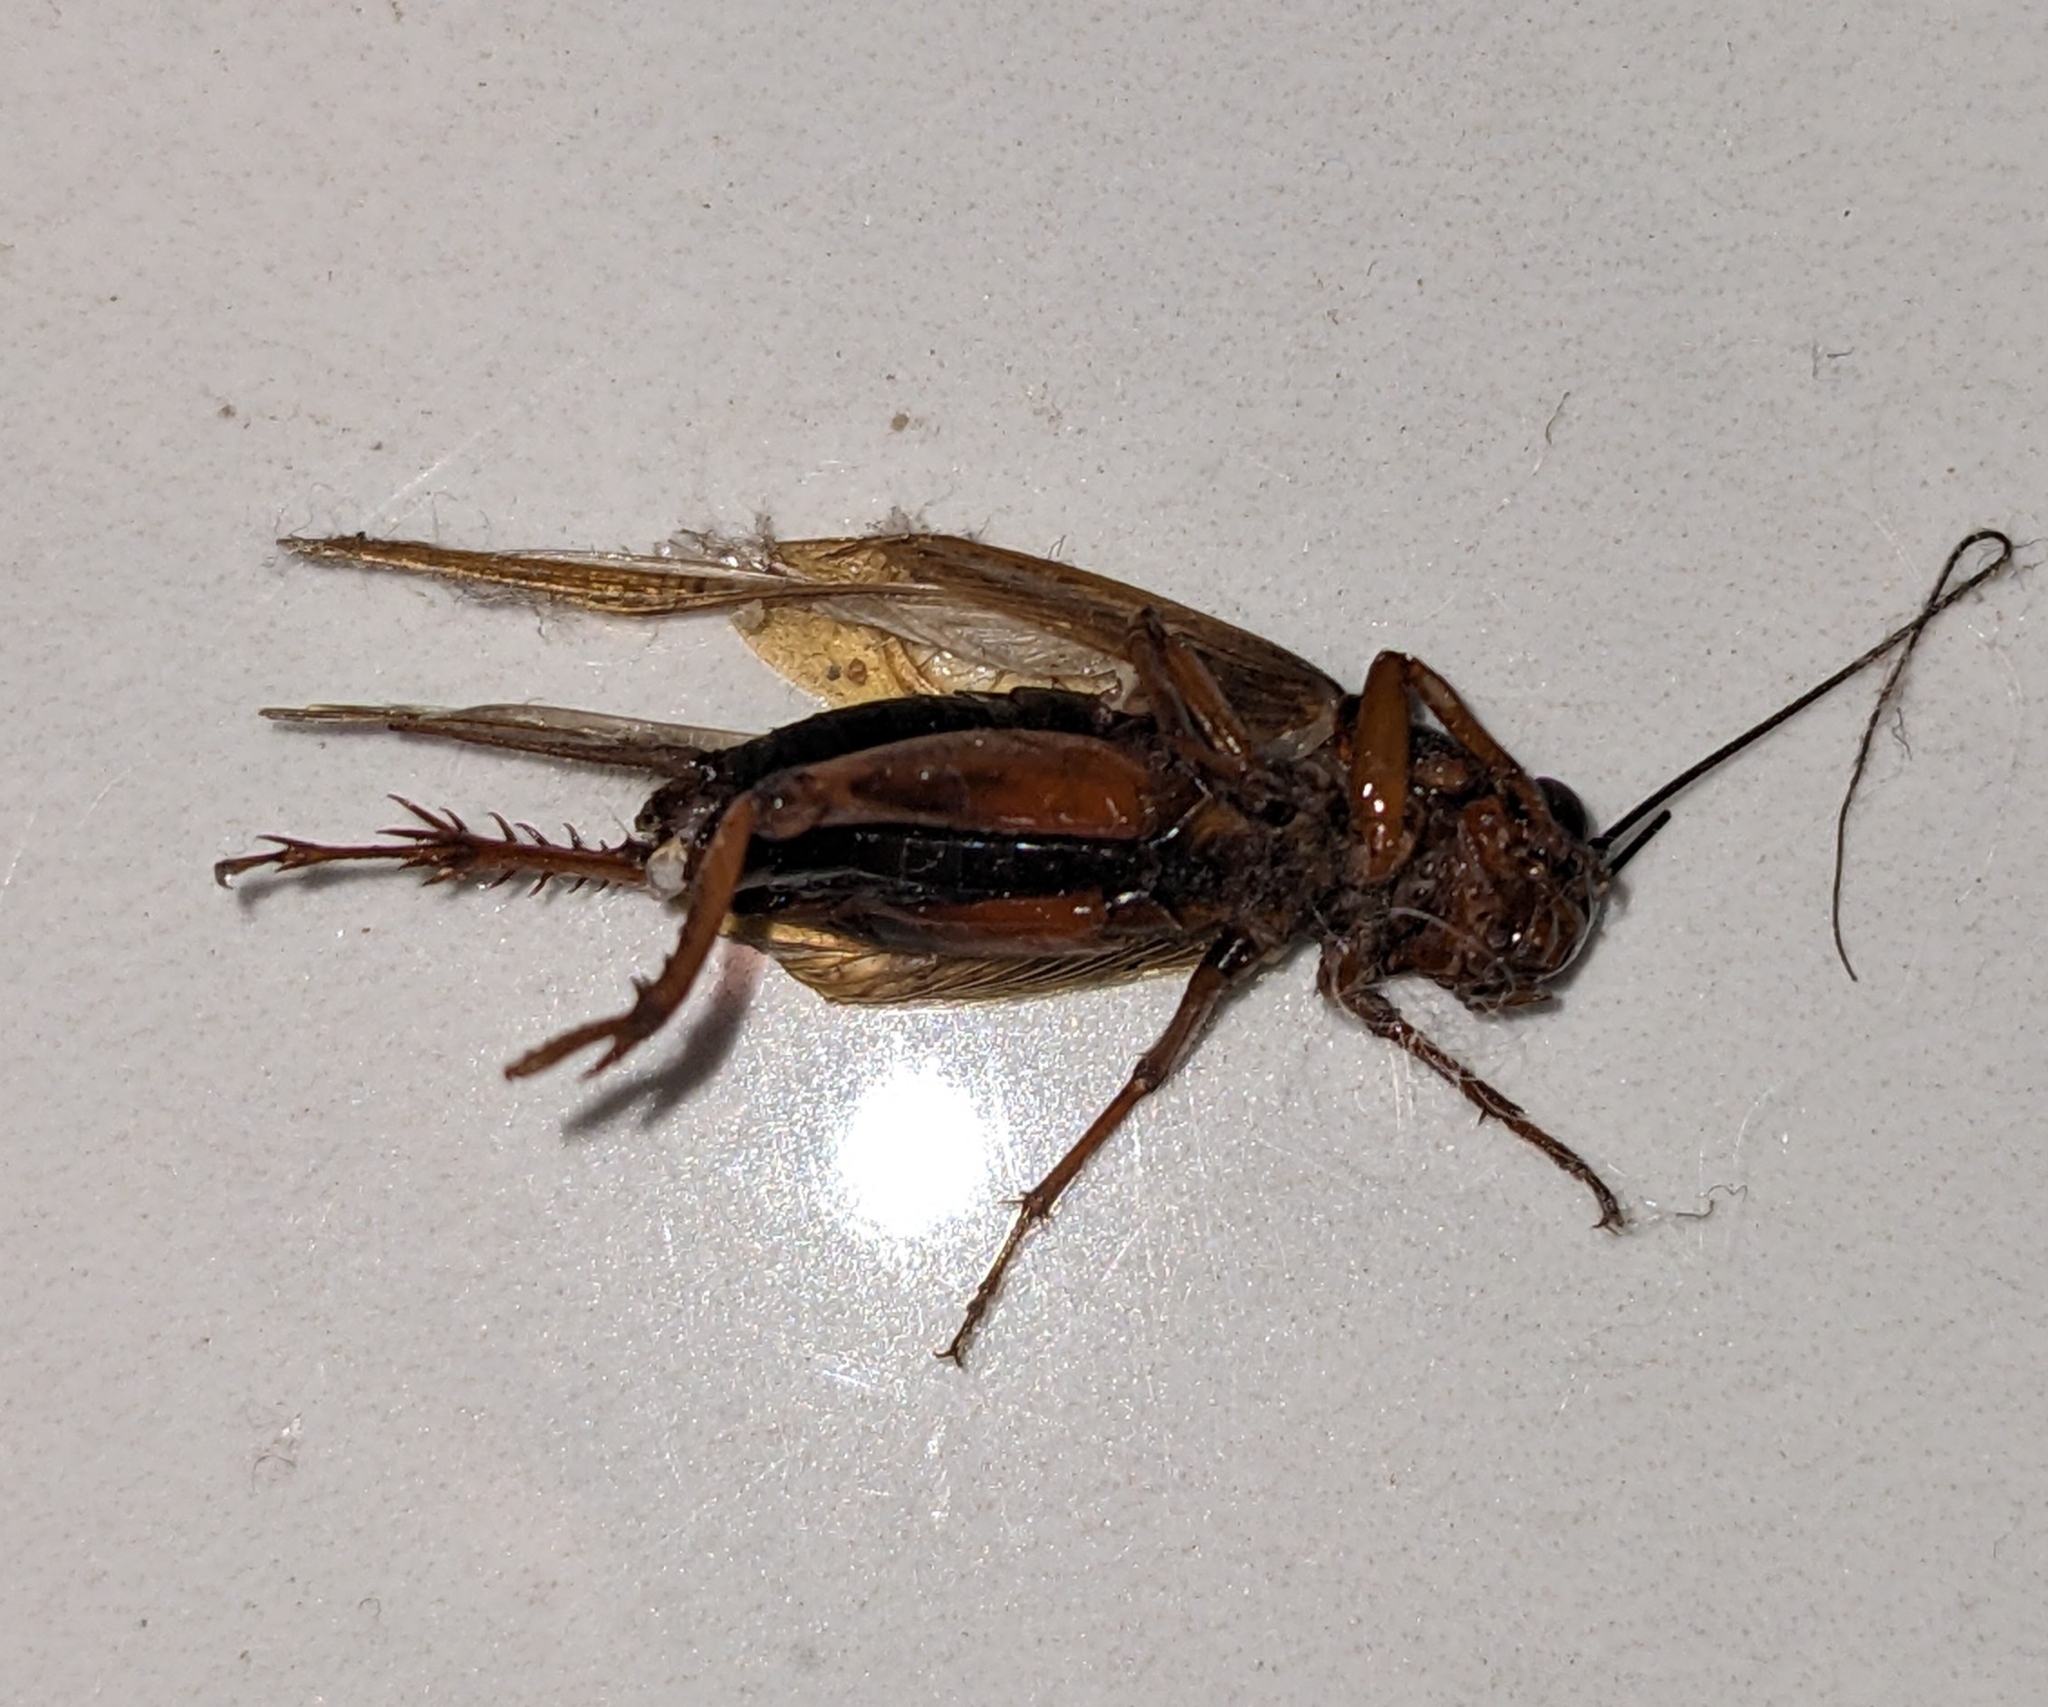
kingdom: Animalia
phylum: Arthropoda
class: Insecta
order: Orthoptera
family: Gryllidae
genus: Gryllus
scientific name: Gryllus bimaculatus
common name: Two-spotted cricket
